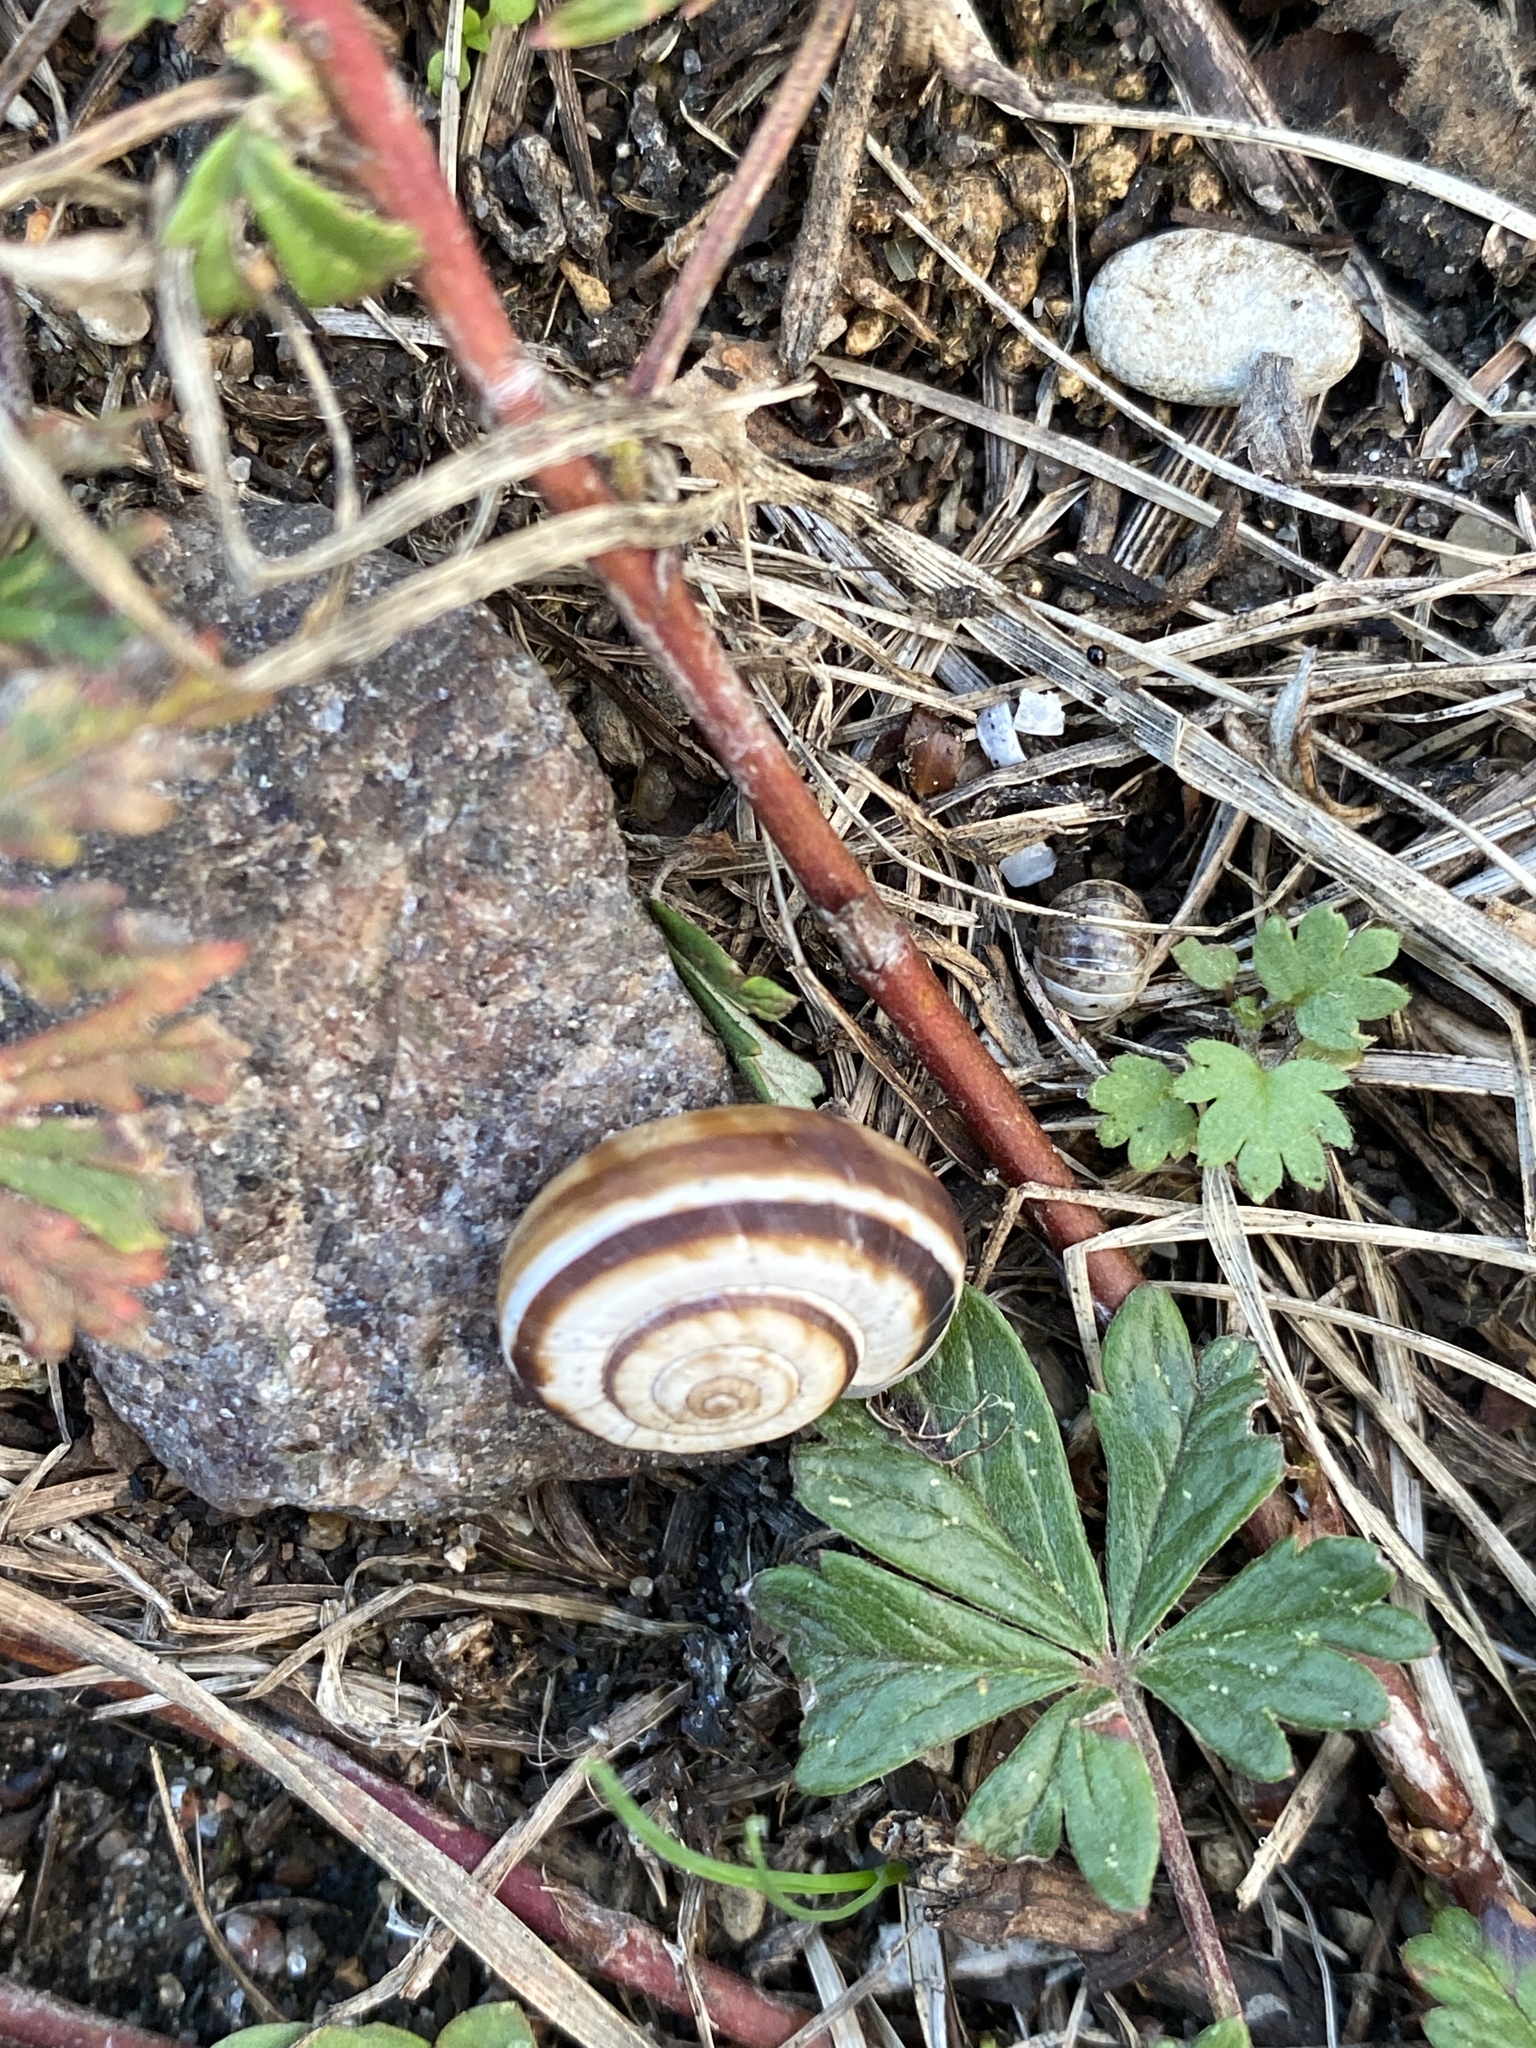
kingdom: Animalia
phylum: Mollusca
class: Gastropoda
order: Stylommatophora
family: Geomitridae
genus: Xerolenta
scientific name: Xerolenta obvia
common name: White heath snail
